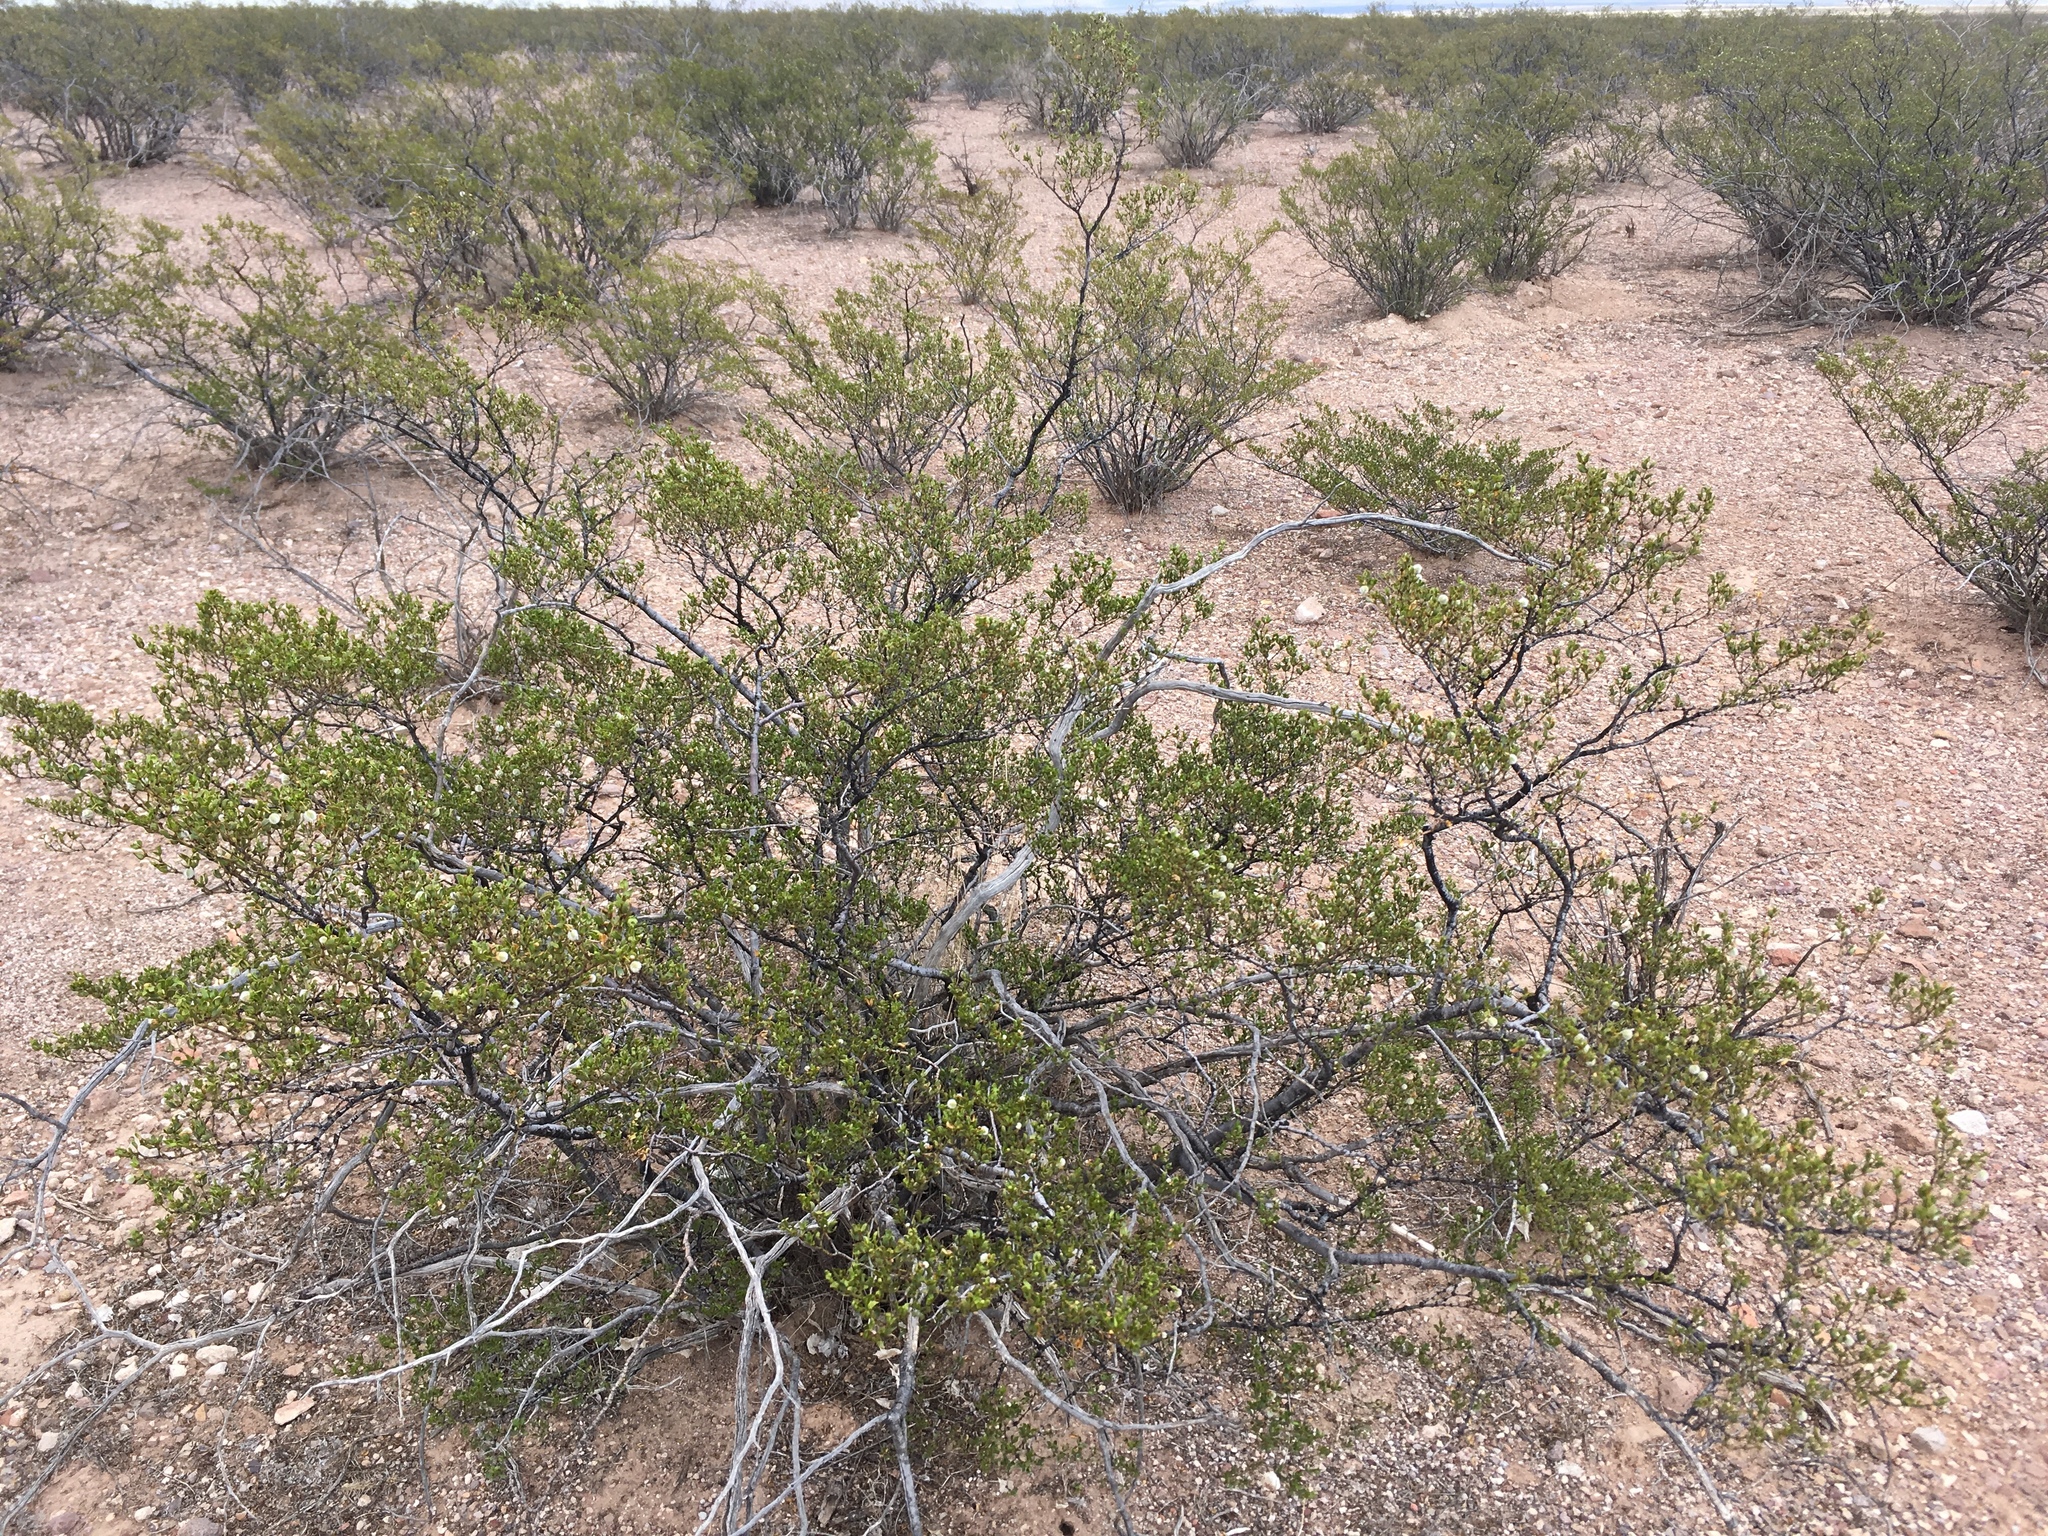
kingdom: Plantae
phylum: Tracheophyta
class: Magnoliopsida
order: Zygophyllales
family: Zygophyllaceae
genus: Larrea
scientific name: Larrea tridentata
